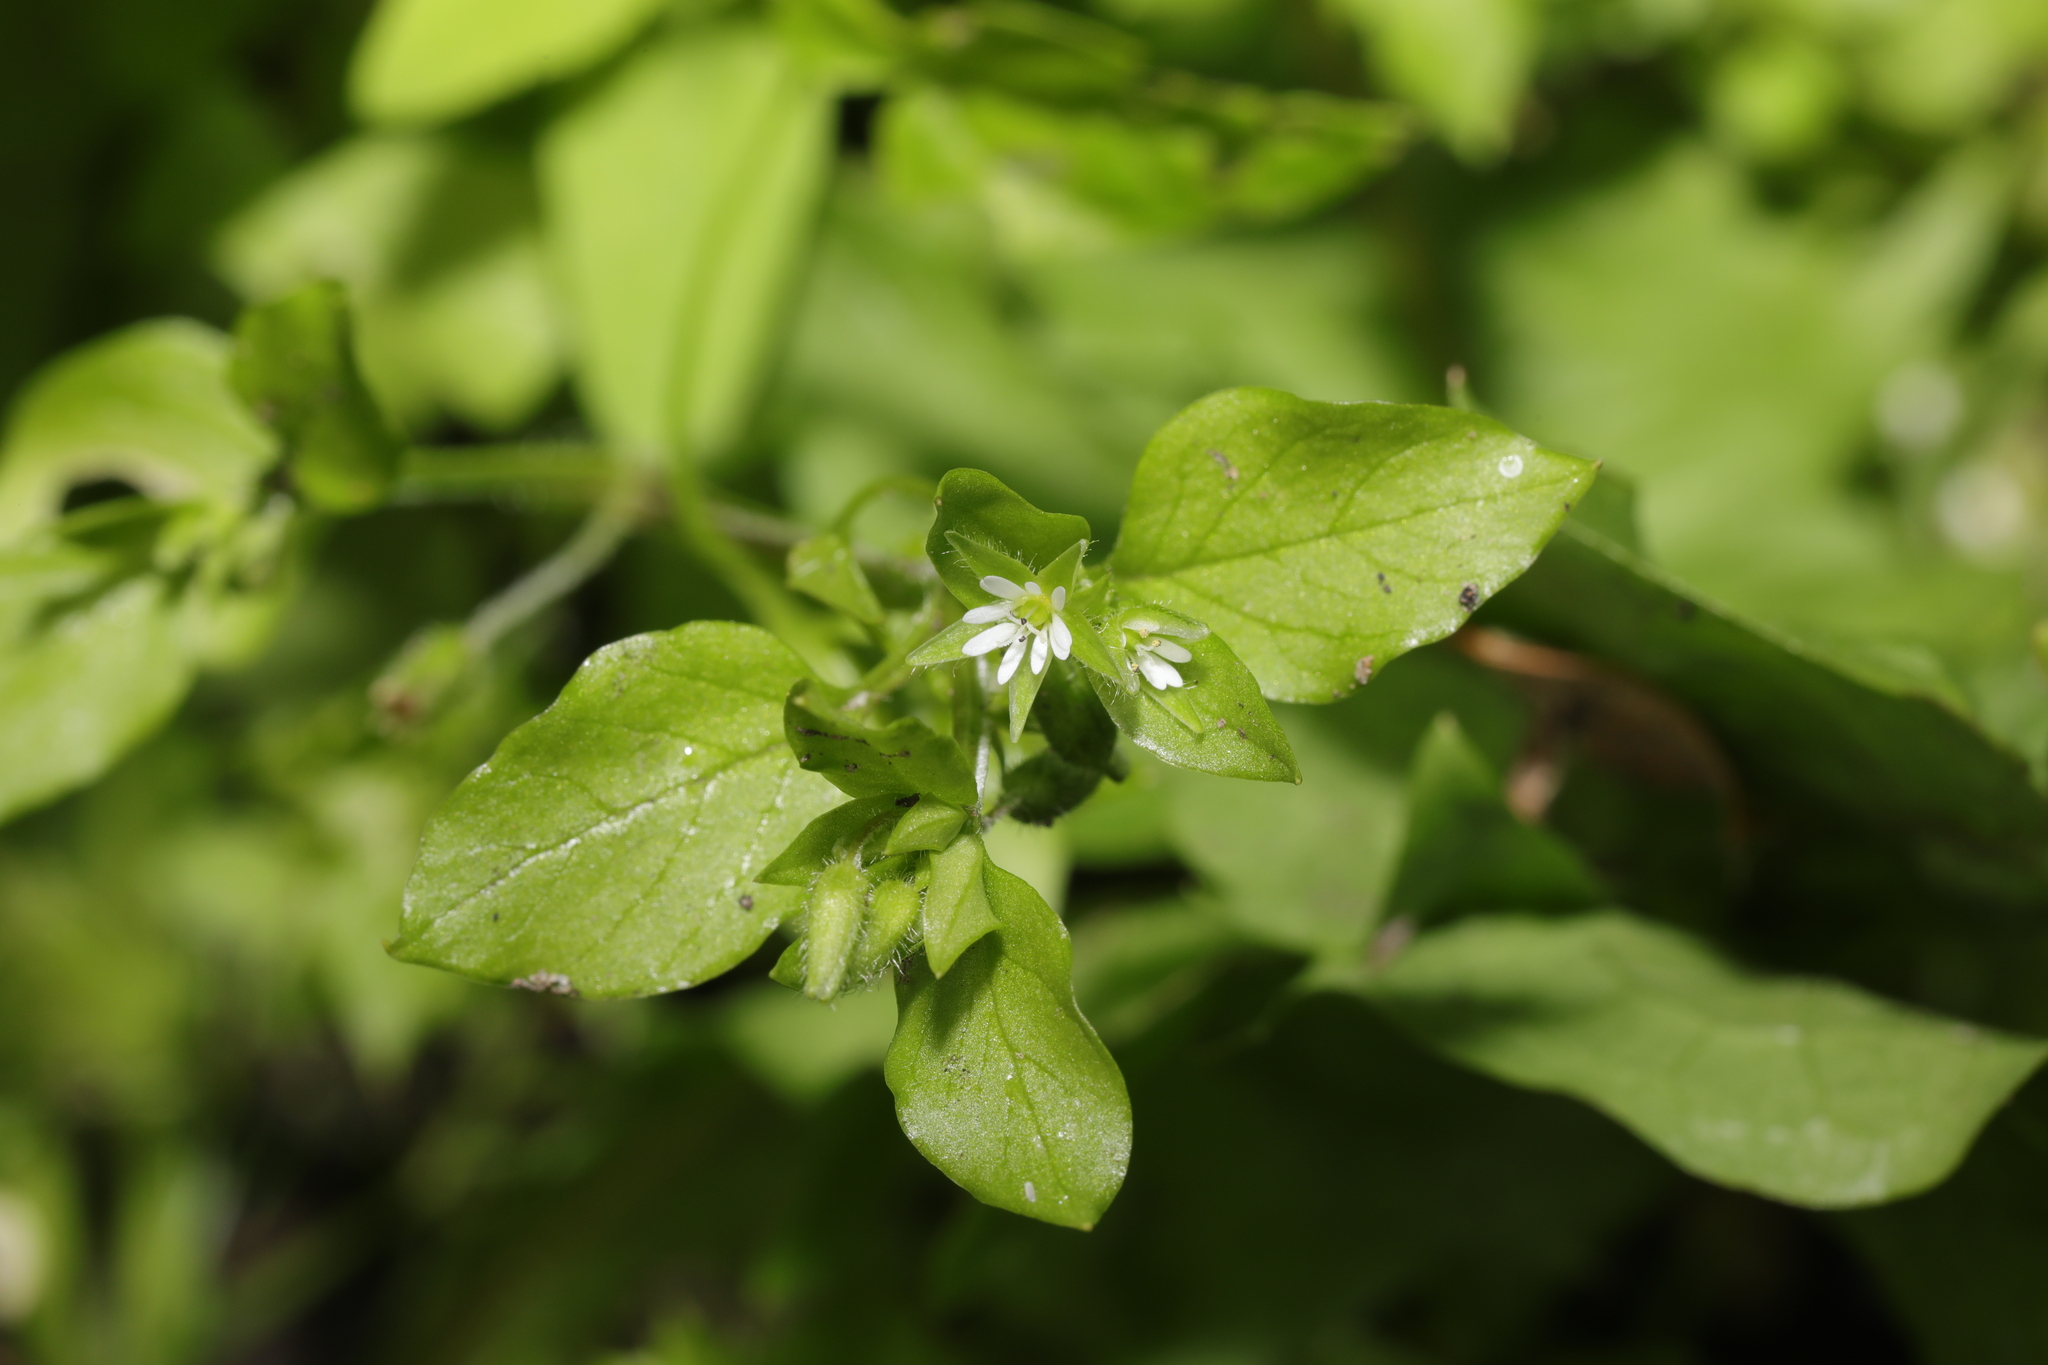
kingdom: Plantae
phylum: Tracheophyta
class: Magnoliopsida
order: Caryophyllales
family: Caryophyllaceae
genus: Stellaria
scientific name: Stellaria media
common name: Common chickweed
